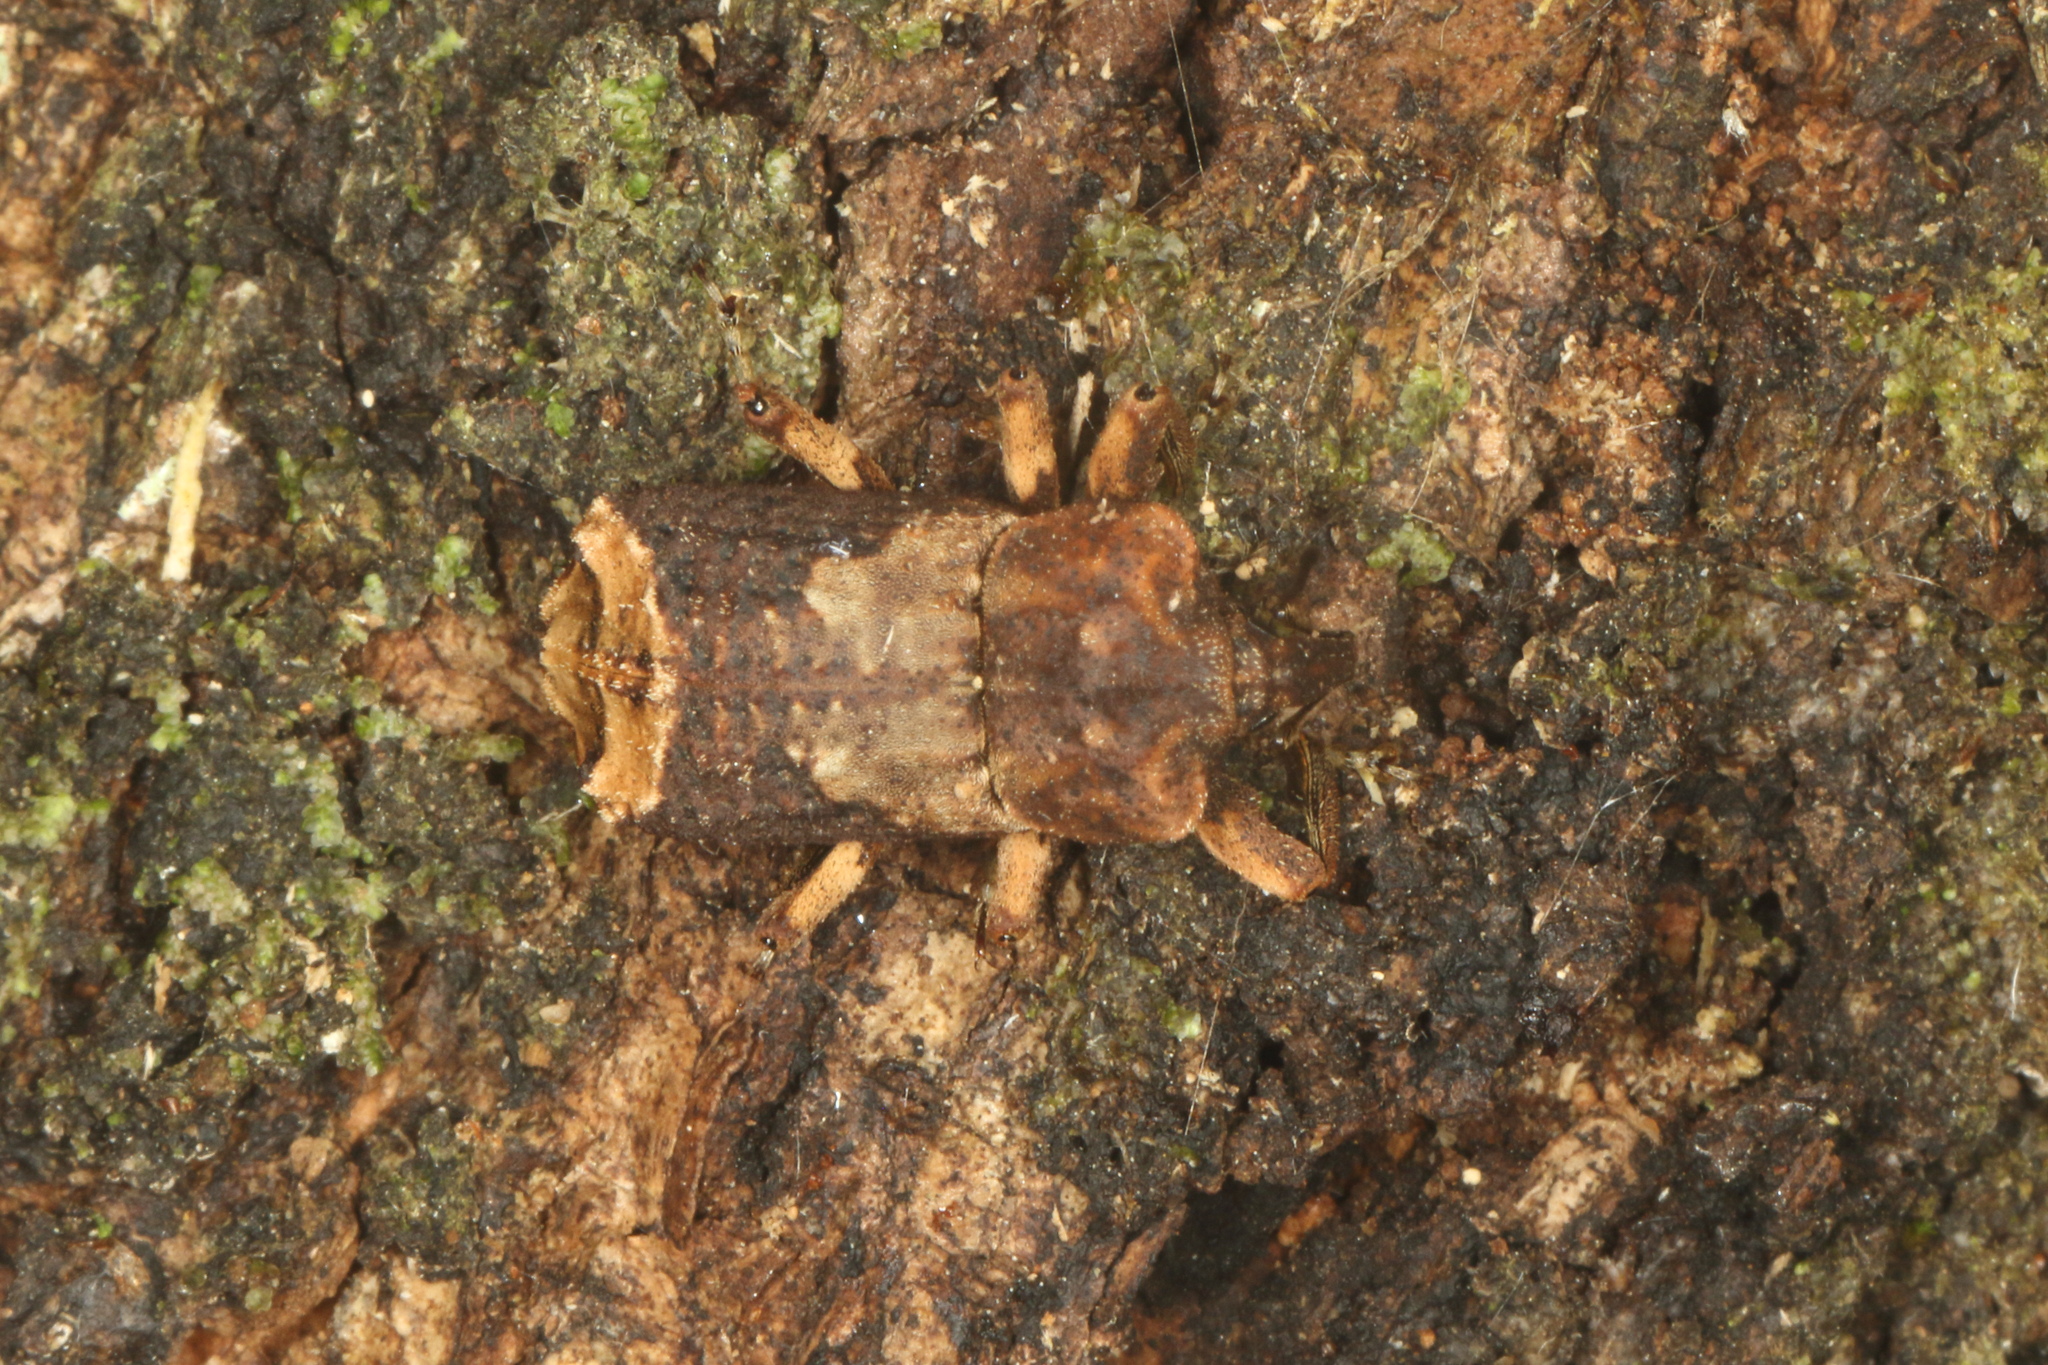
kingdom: Animalia
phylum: Arthropoda
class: Insecta
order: Coleoptera
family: Curculionidae
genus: Ectopsis
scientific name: Ectopsis ferrugalis
